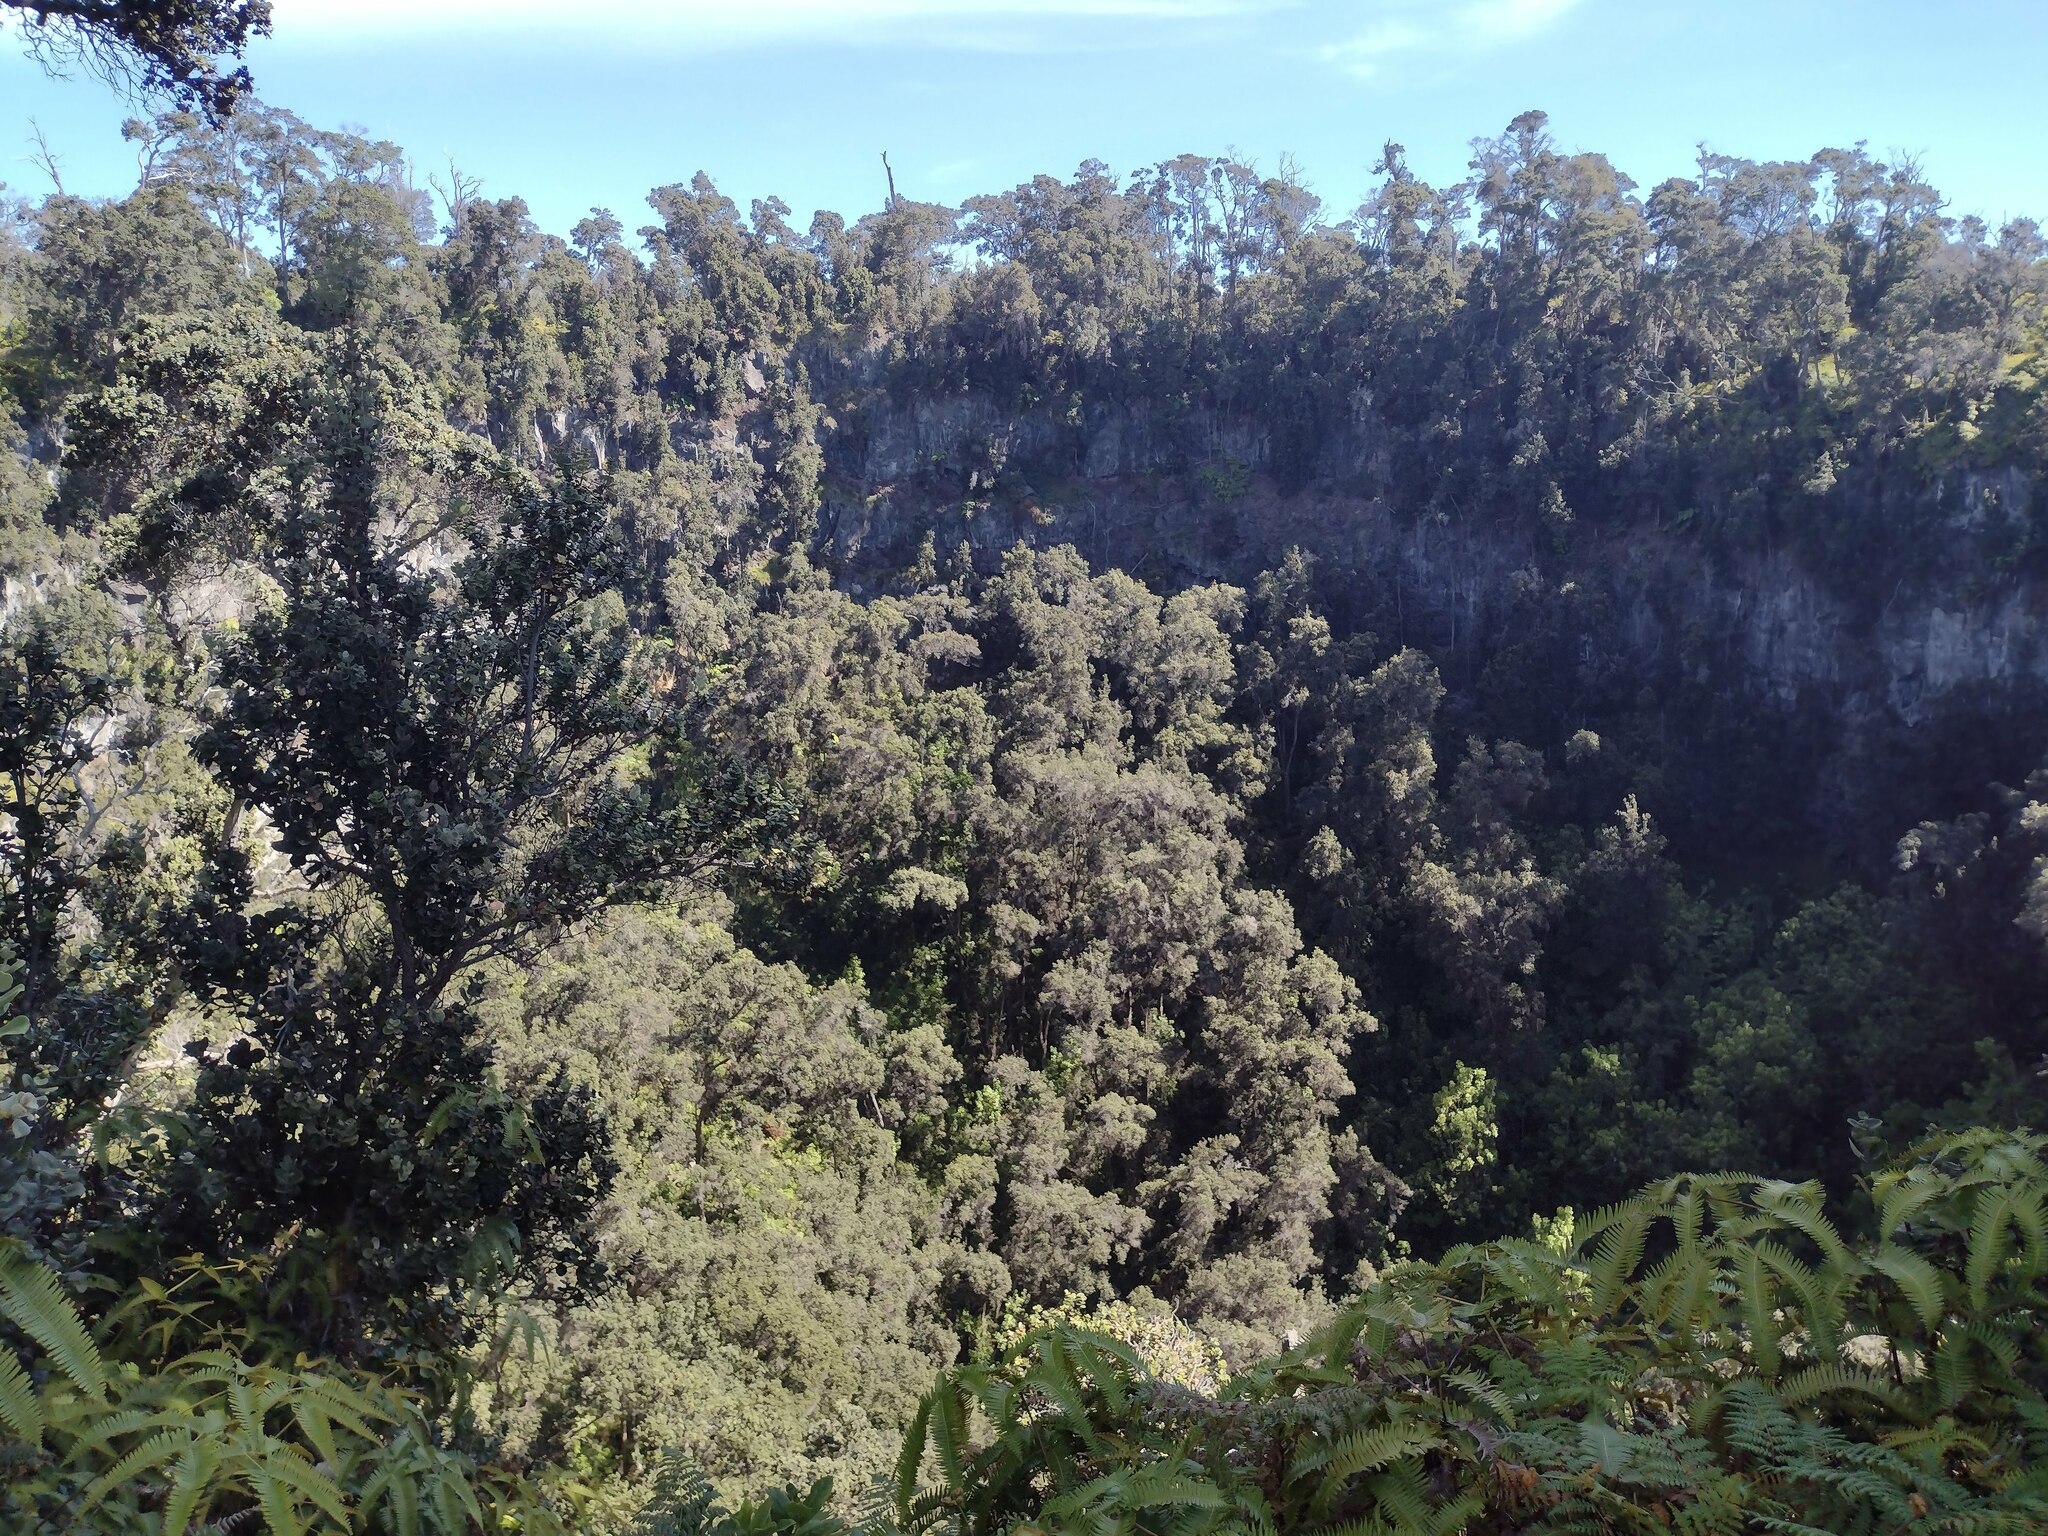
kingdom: Plantae
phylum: Tracheophyta
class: Magnoliopsida
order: Myrtales
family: Myrtaceae
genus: Metrosideros
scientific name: Metrosideros polymorpha
